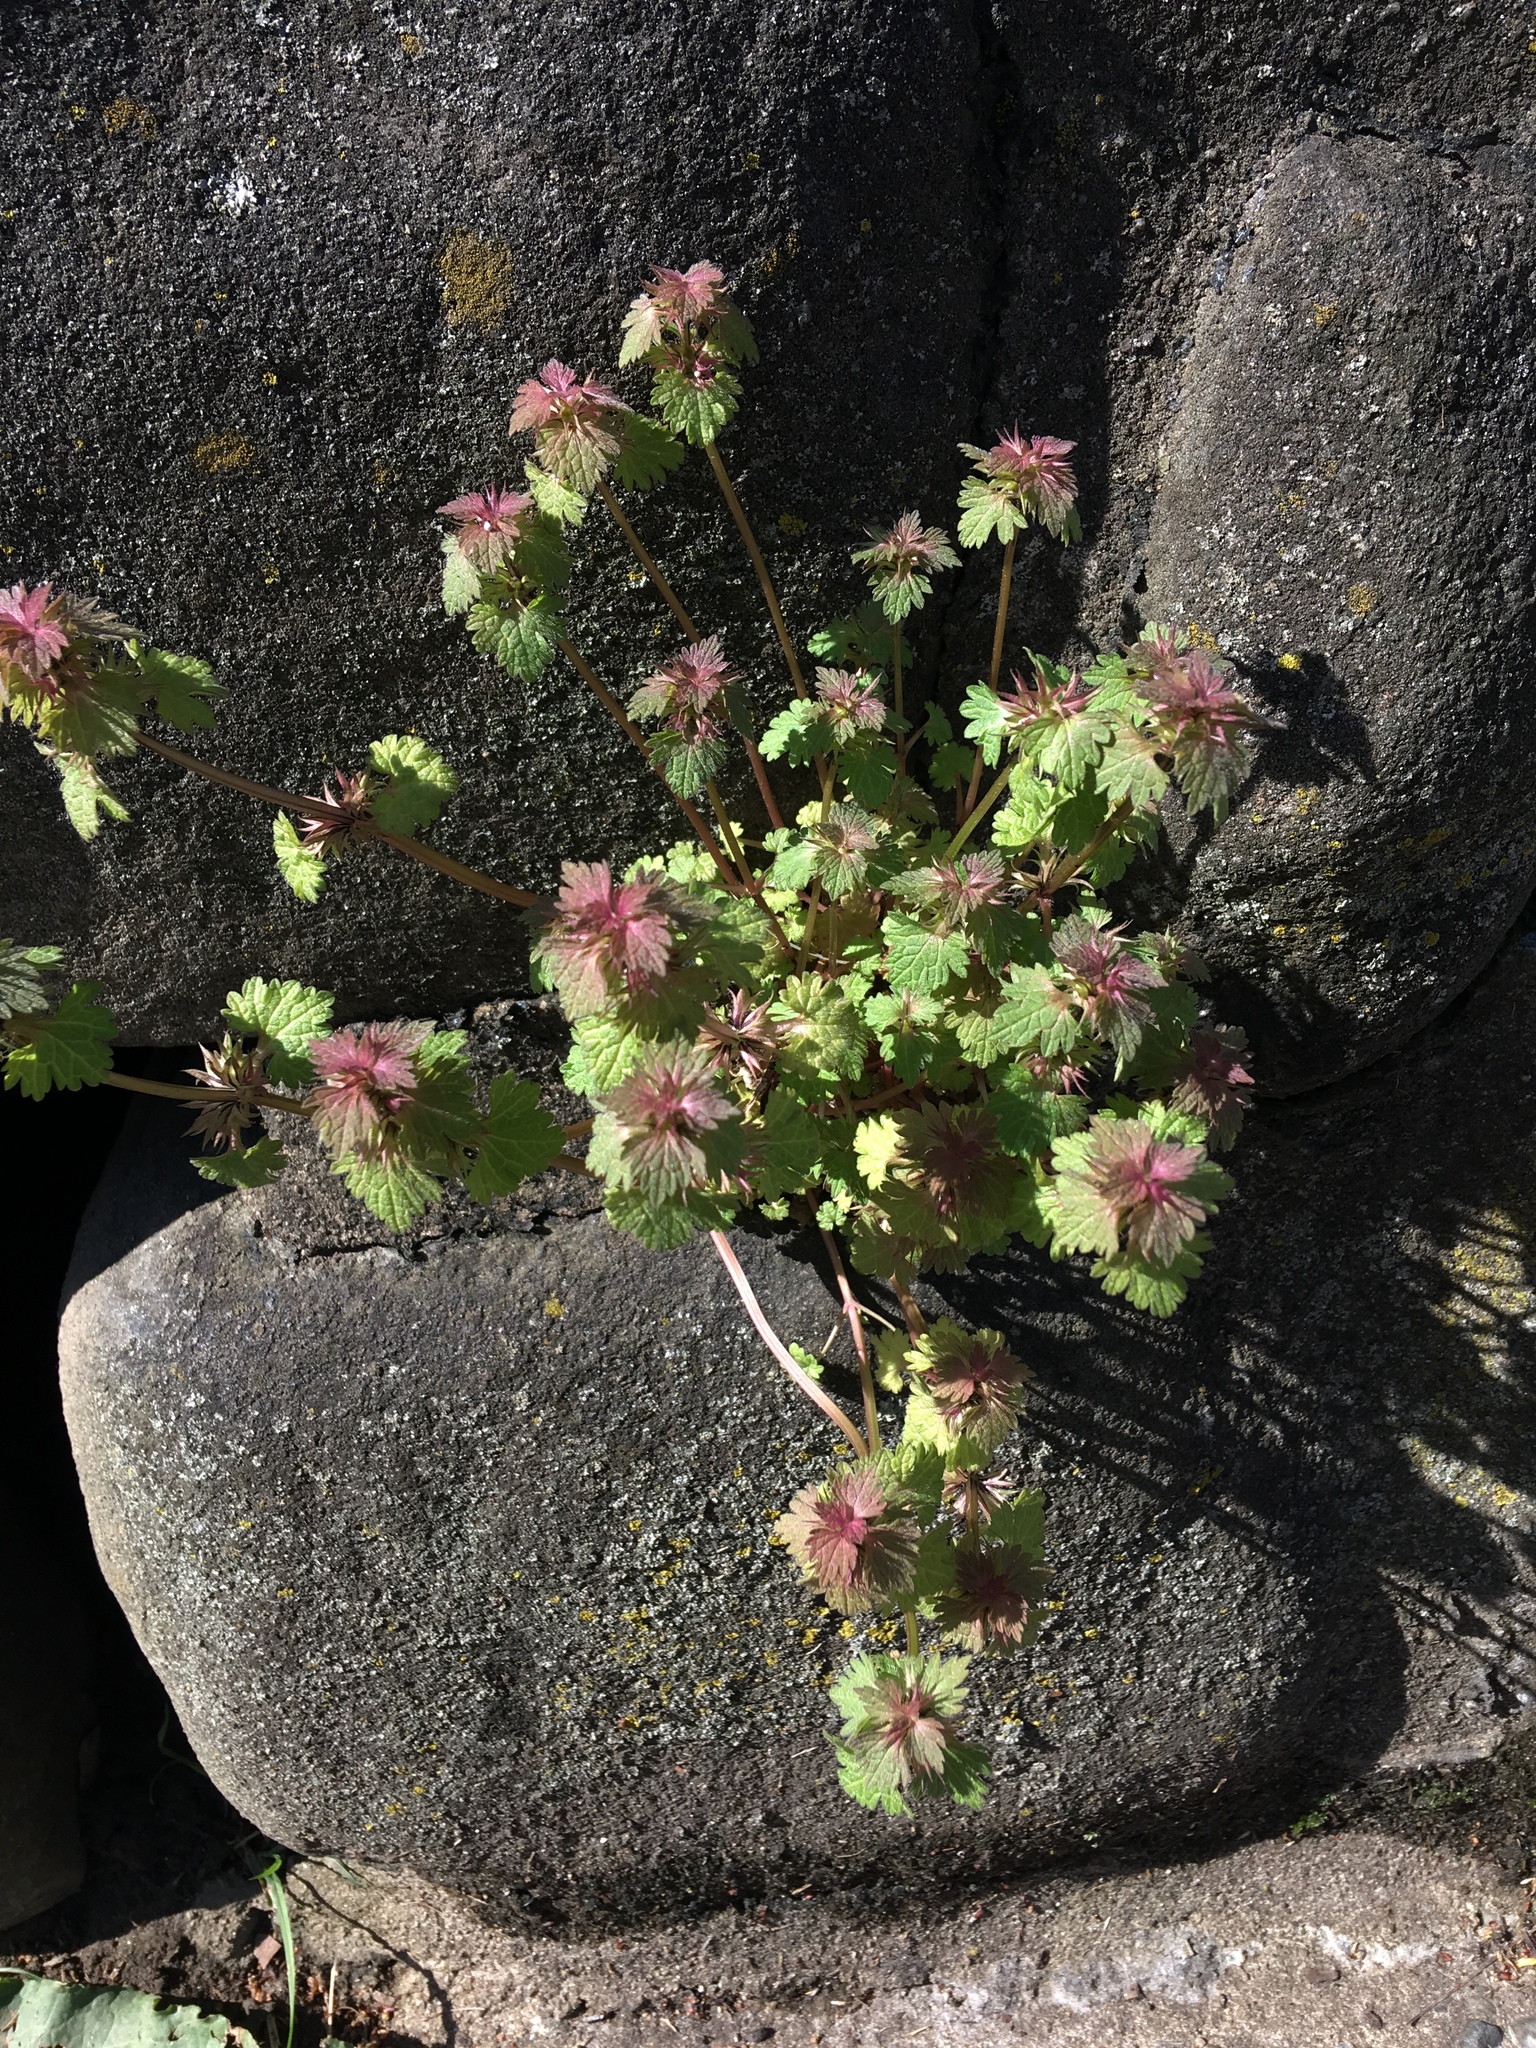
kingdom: Plantae
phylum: Tracheophyta
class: Magnoliopsida
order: Lamiales
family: Lamiaceae
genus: Lamium
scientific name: Lamium hybridum
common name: Cut-leaved dead-nettle
